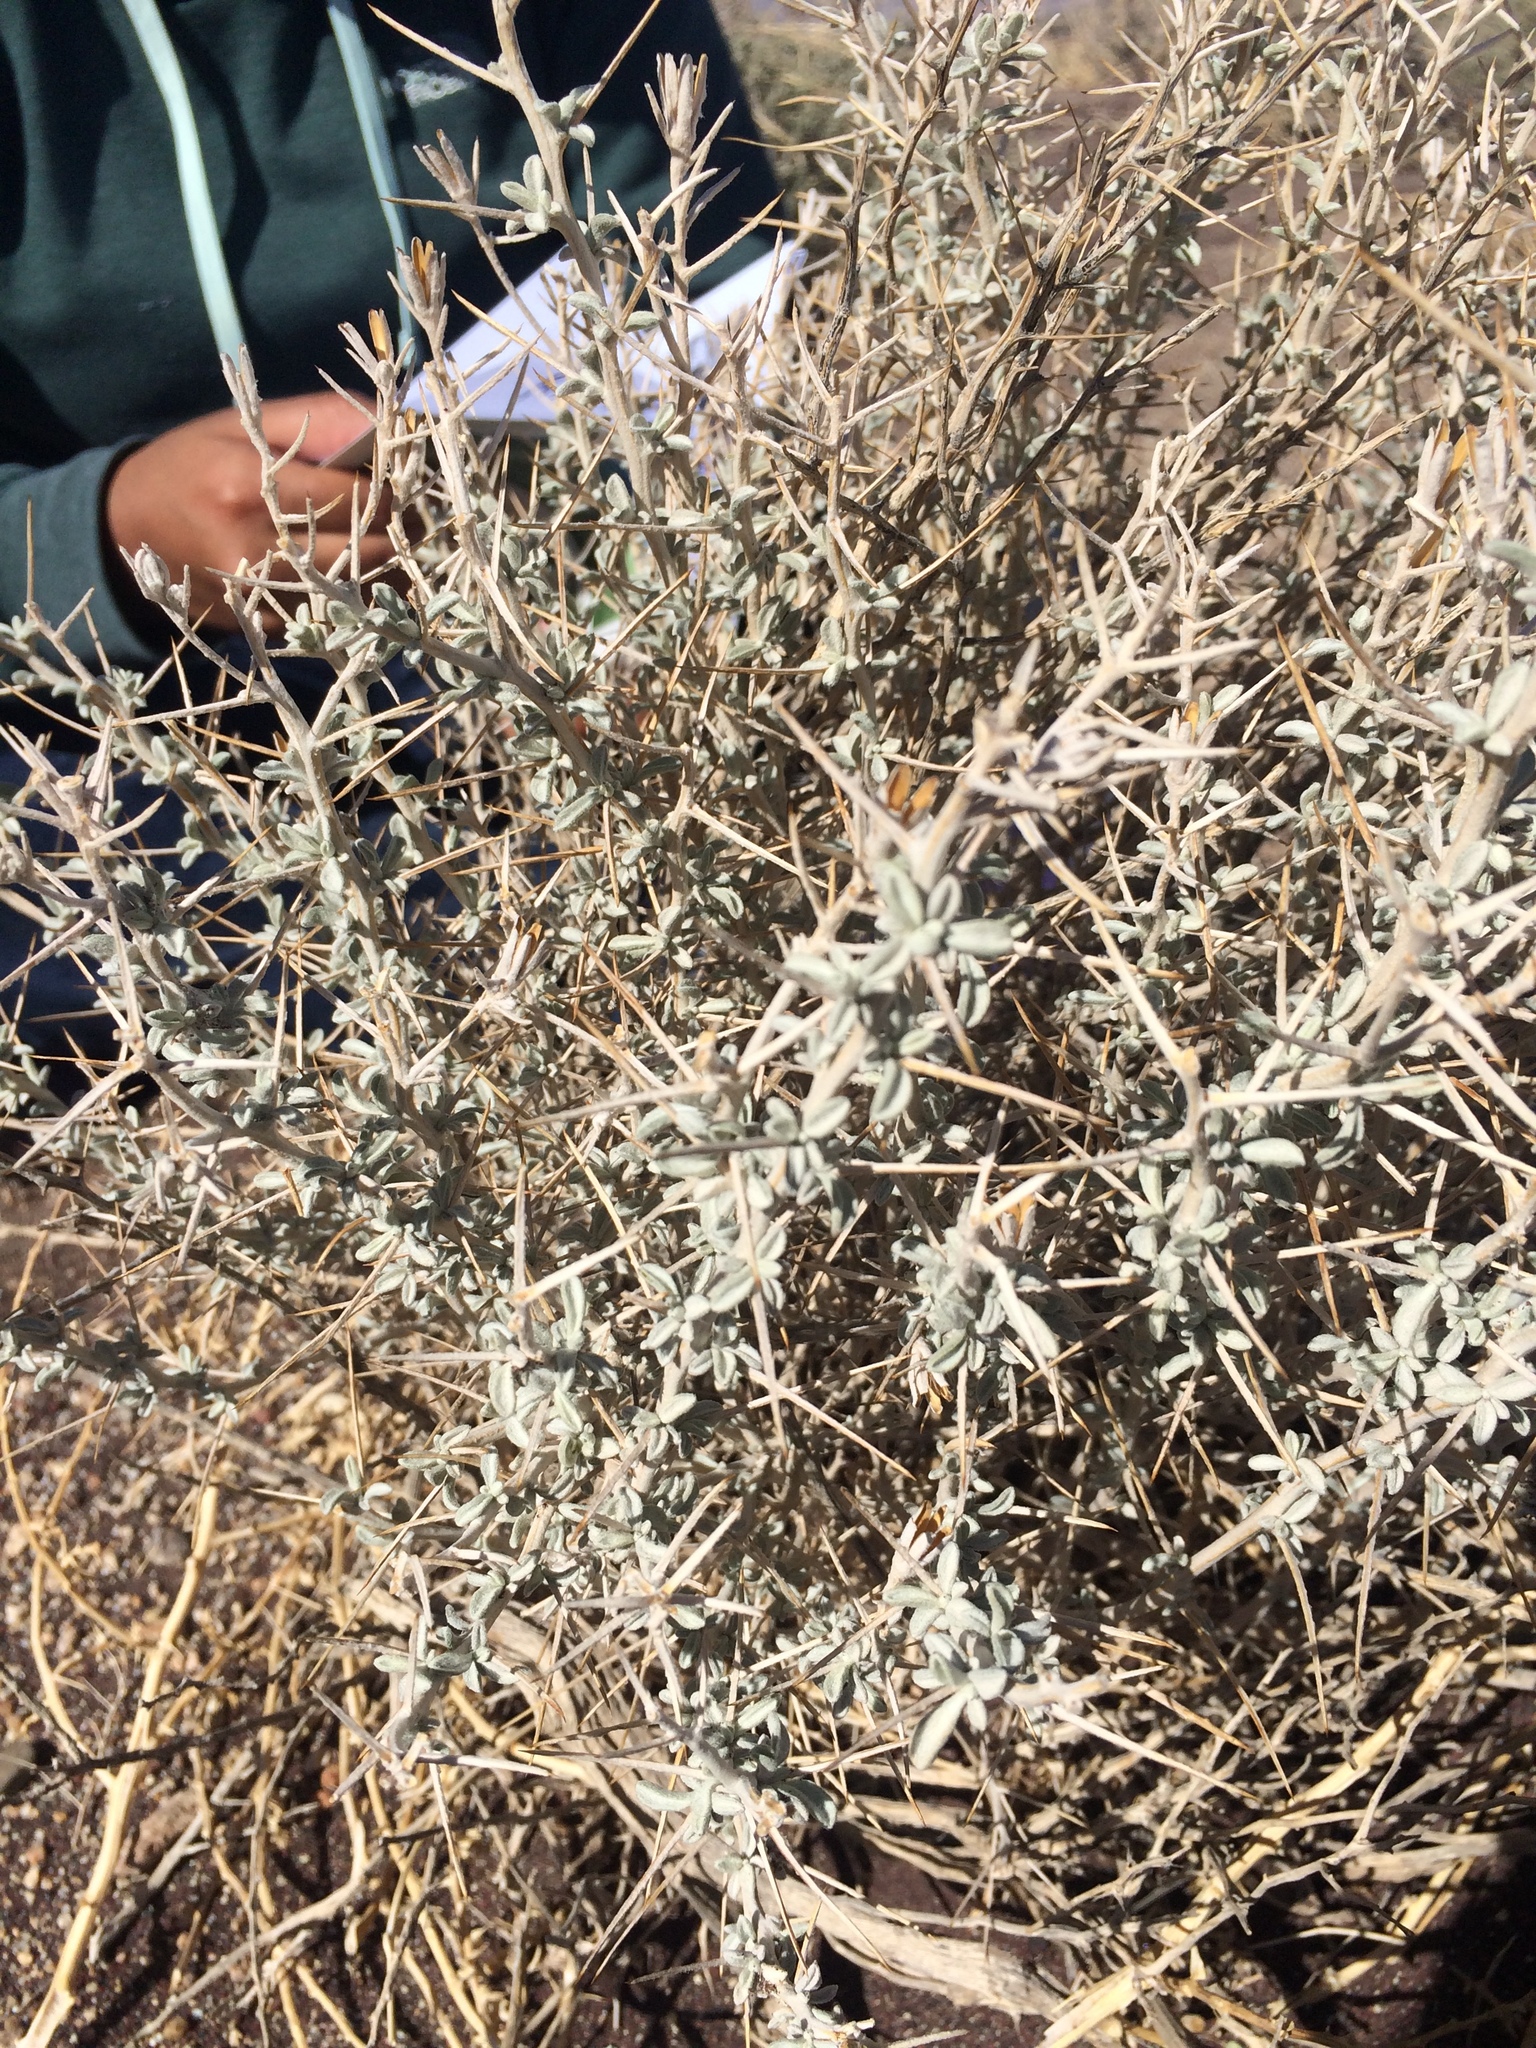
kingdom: Plantae
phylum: Tracheophyta
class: Magnoliopsida
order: Asterales
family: Asteraceae
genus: Tetradymia
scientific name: Tetradymia stenolepis
